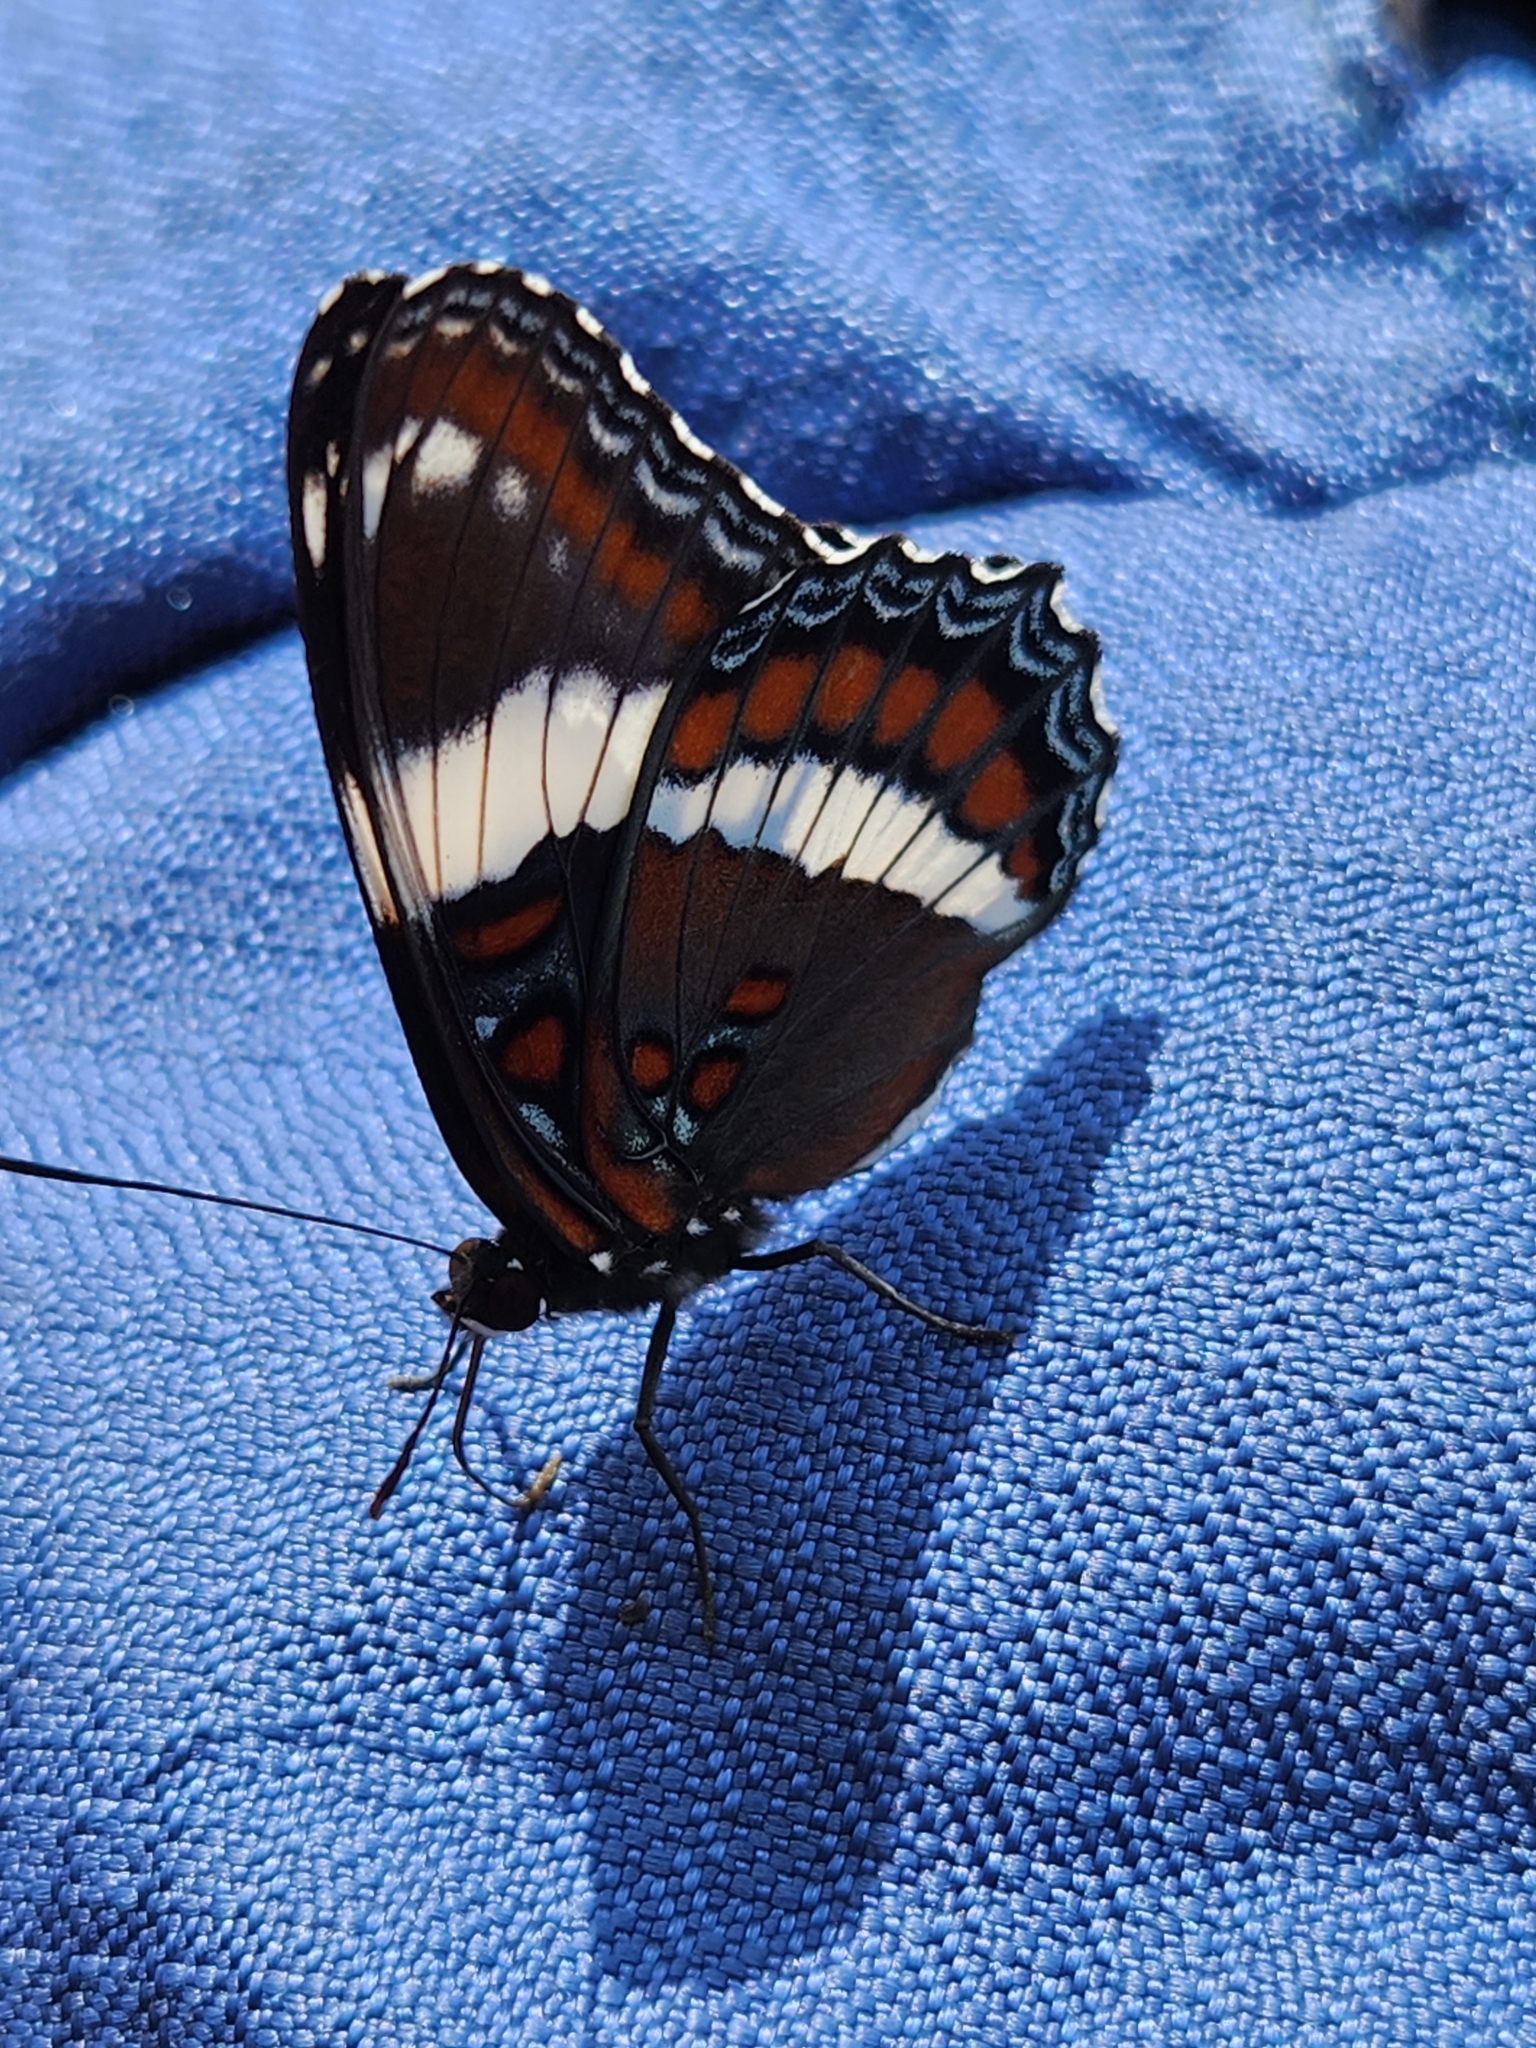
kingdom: Animalia
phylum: Arthropoda
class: Insecta
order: Lepidoptera
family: Nymphalidae
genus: Limenitis
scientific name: Limenitis arthemis
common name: Red-spotted admiral
